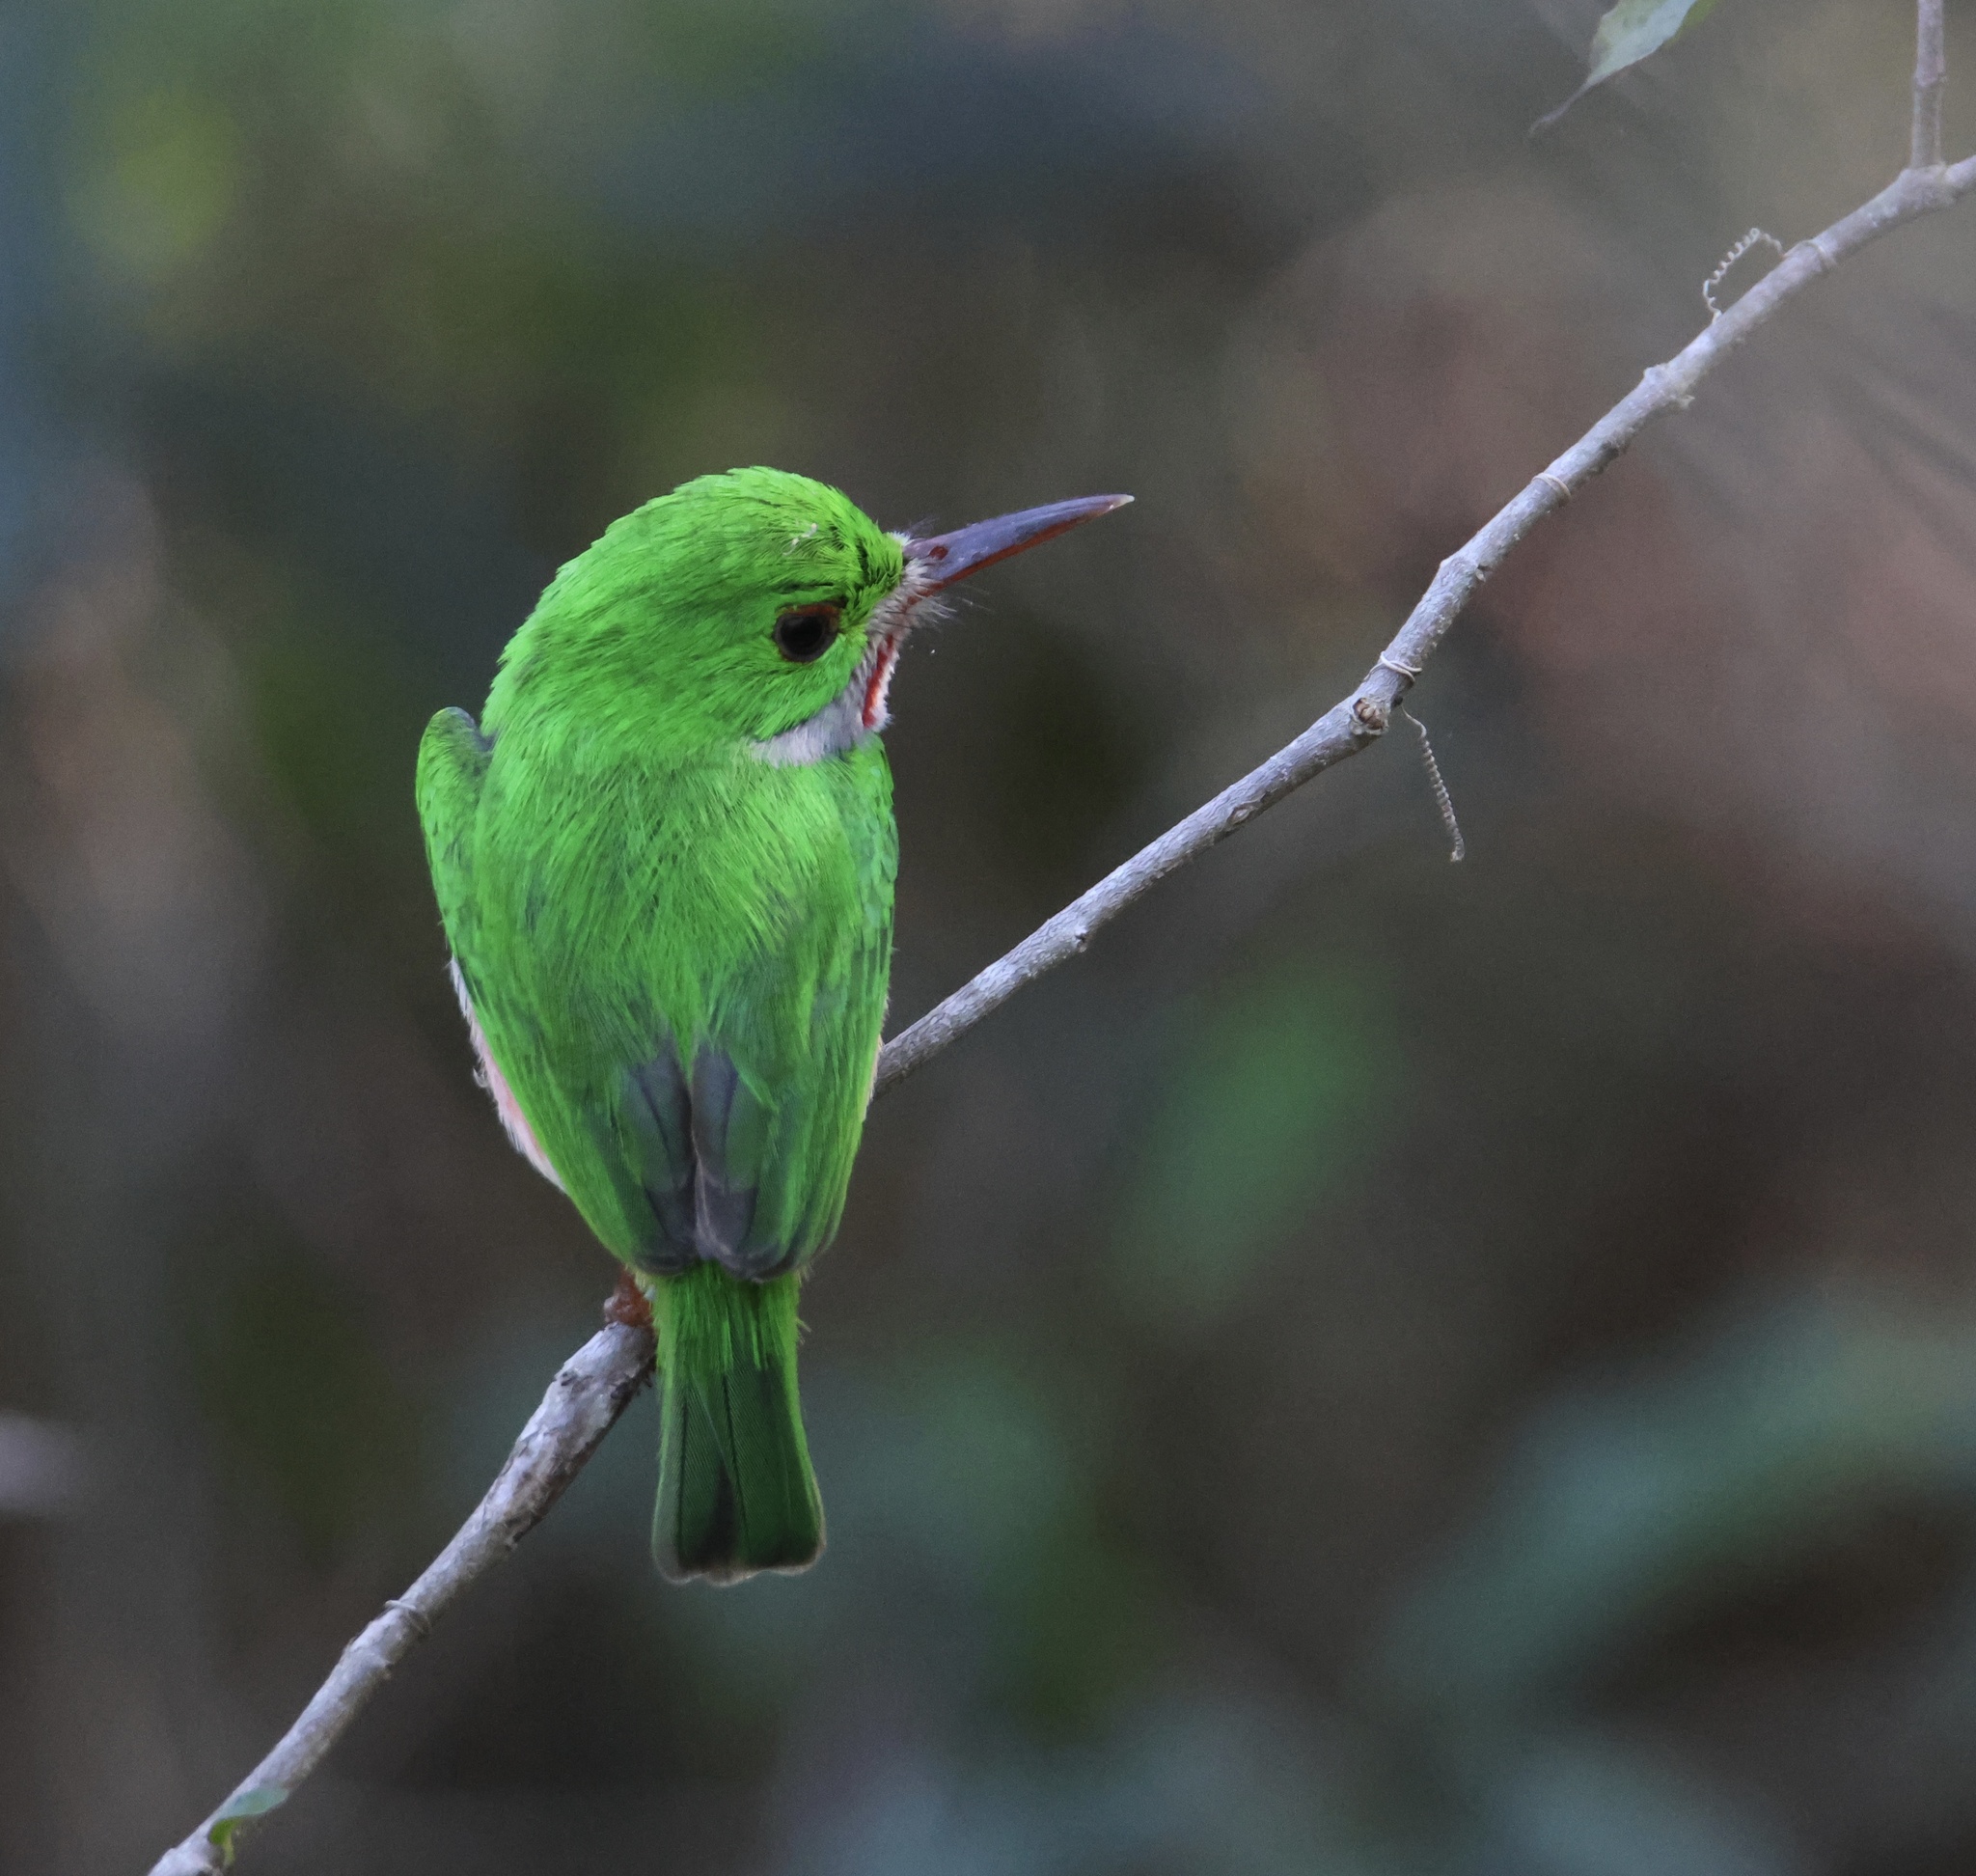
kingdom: Animalia
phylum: Chordata
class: Aves
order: Coraciiformes
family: Todidae
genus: Todus
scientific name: Todus subulatus
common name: Broad-billed tody
